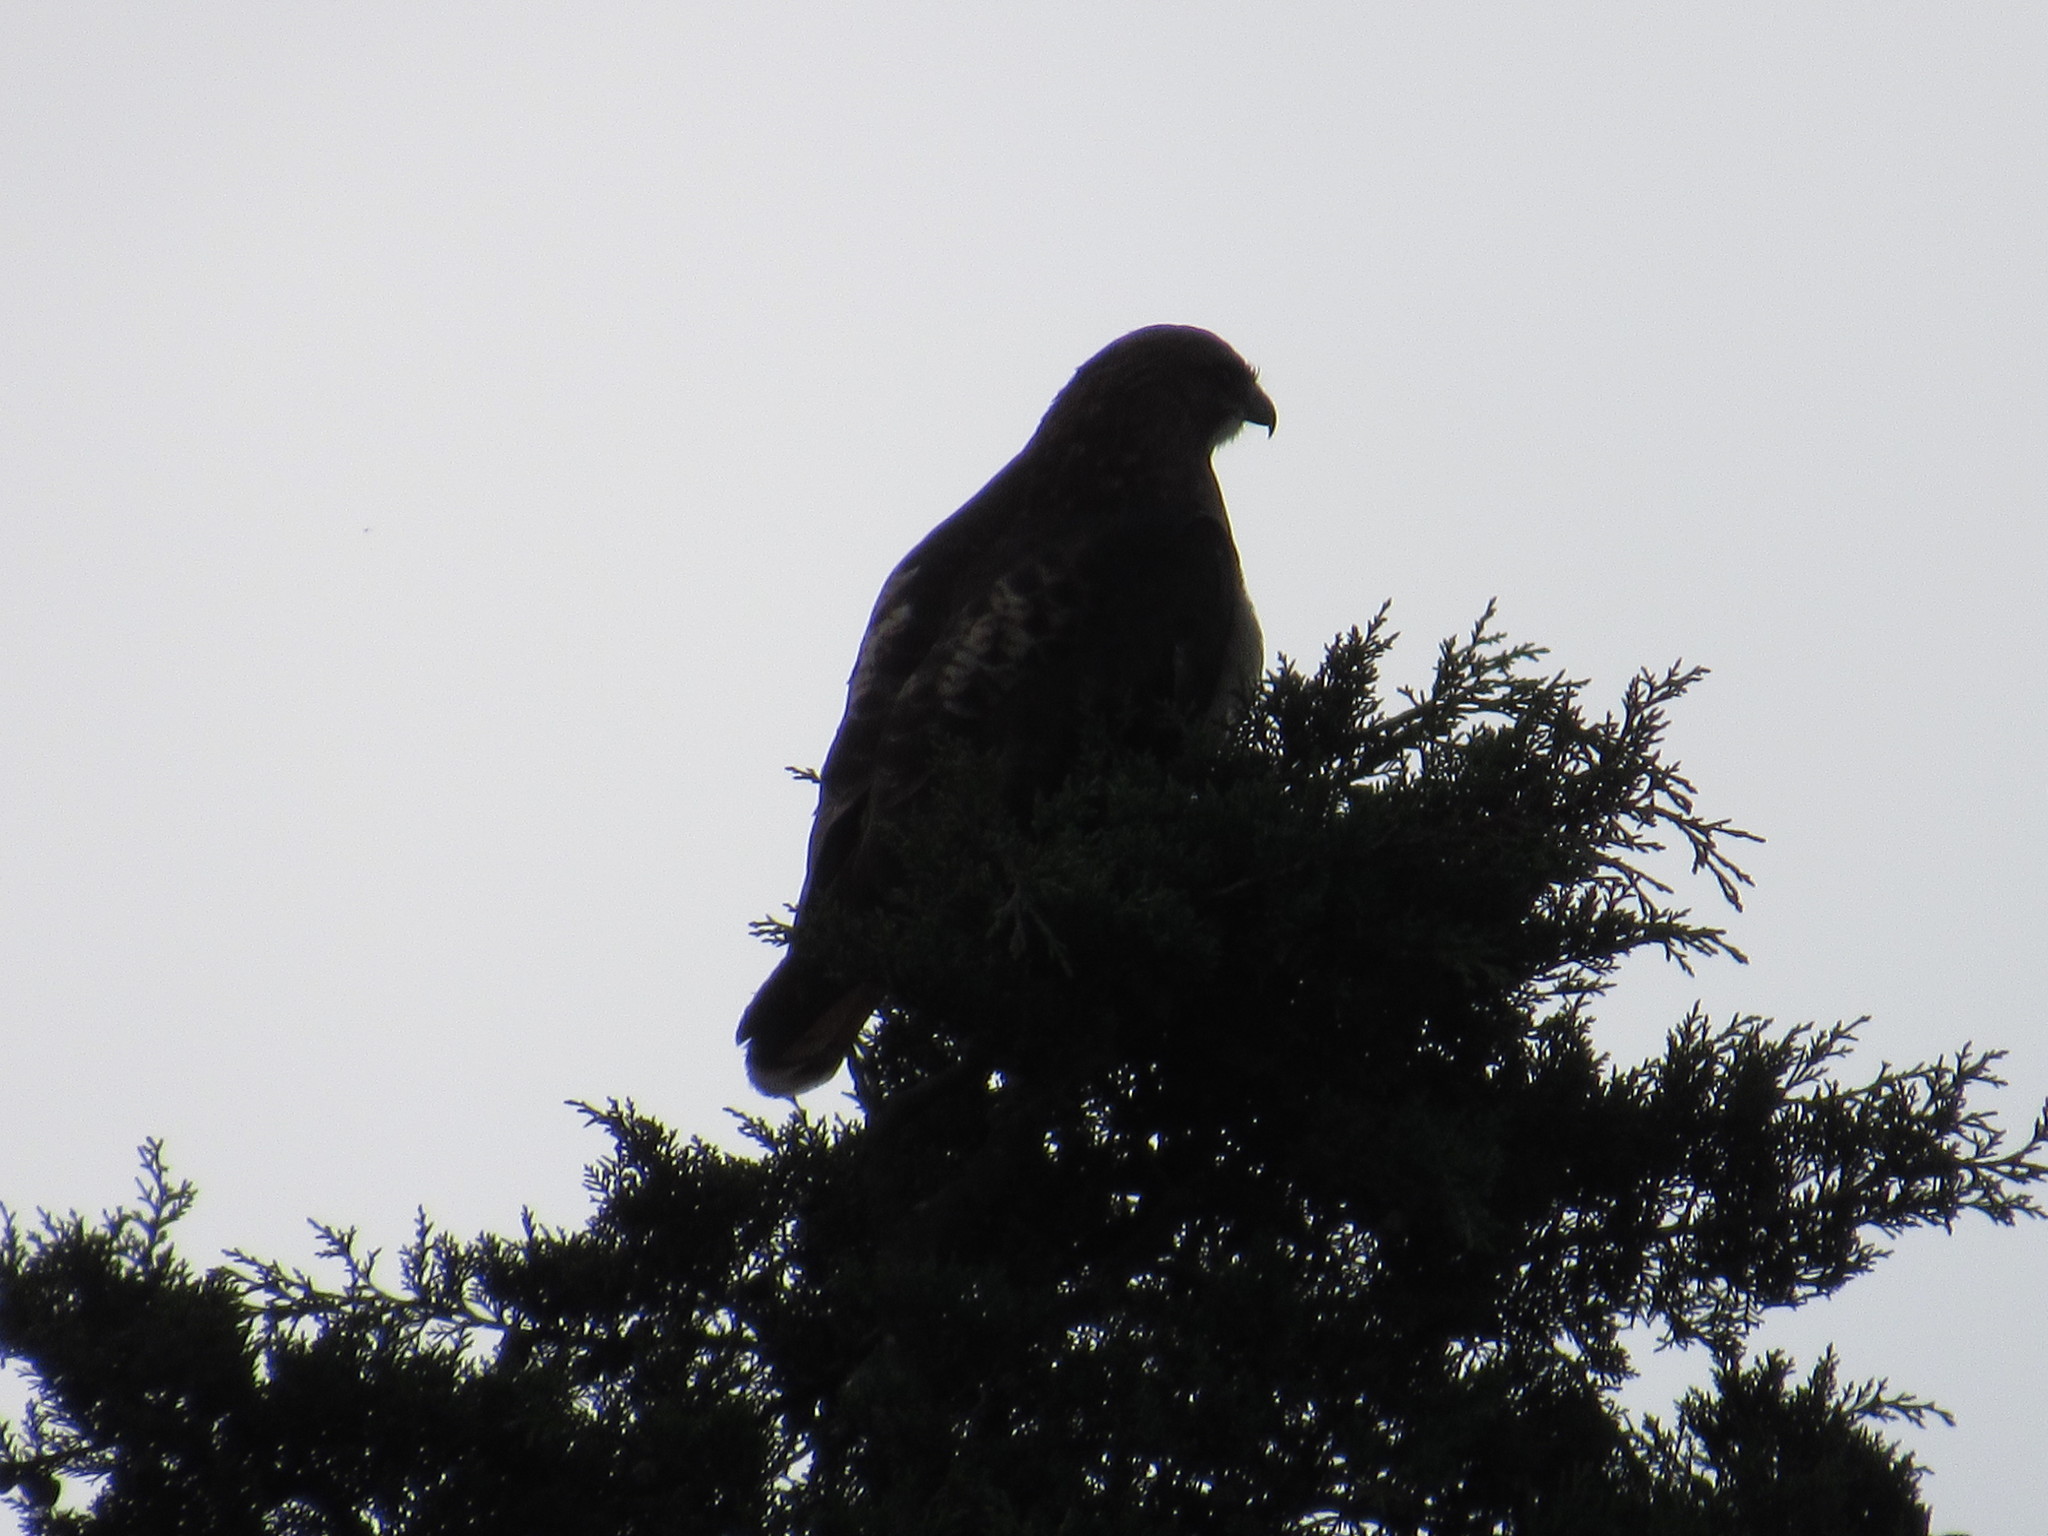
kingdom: Animalia
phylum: Chordata
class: Aves
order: Accipitriformes
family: Accipitridae
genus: Buteo
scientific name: Buteo jamaicensis
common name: Red-tailed hawk
